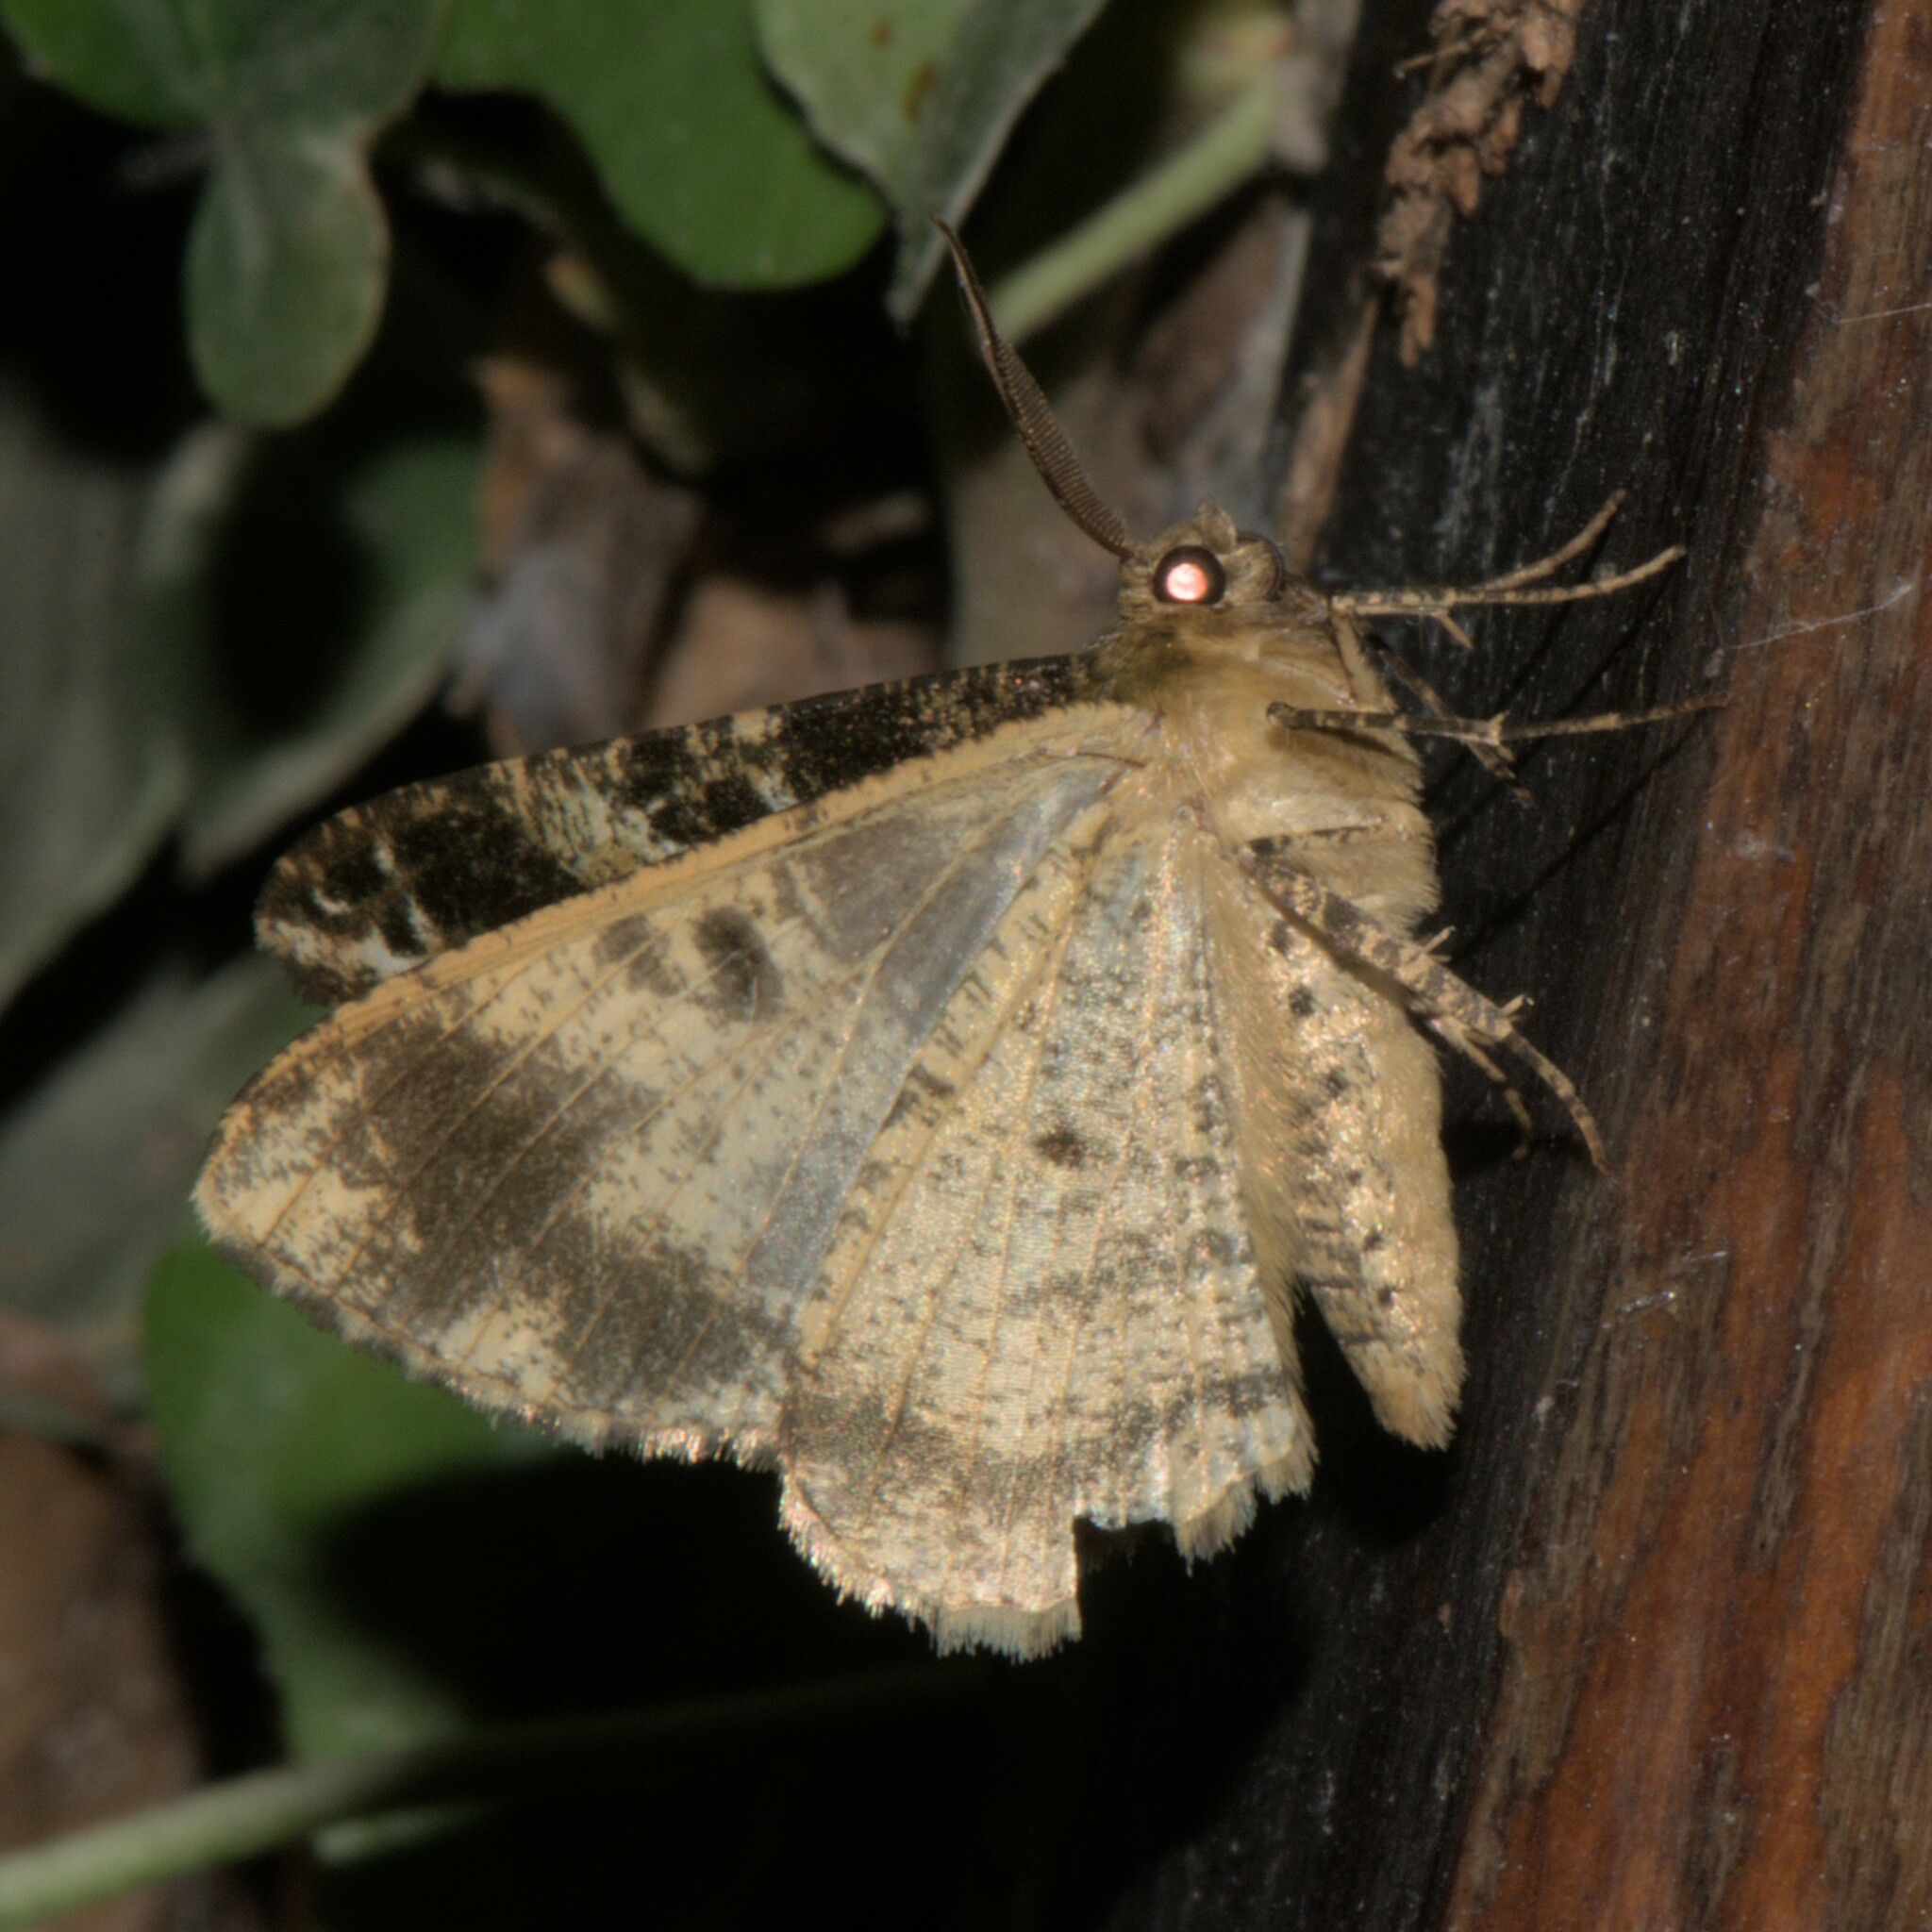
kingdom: Animalia
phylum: Arthropoda
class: Insecta
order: Lepidoptera
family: Geometridae
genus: Arichanna
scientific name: Arichanna
